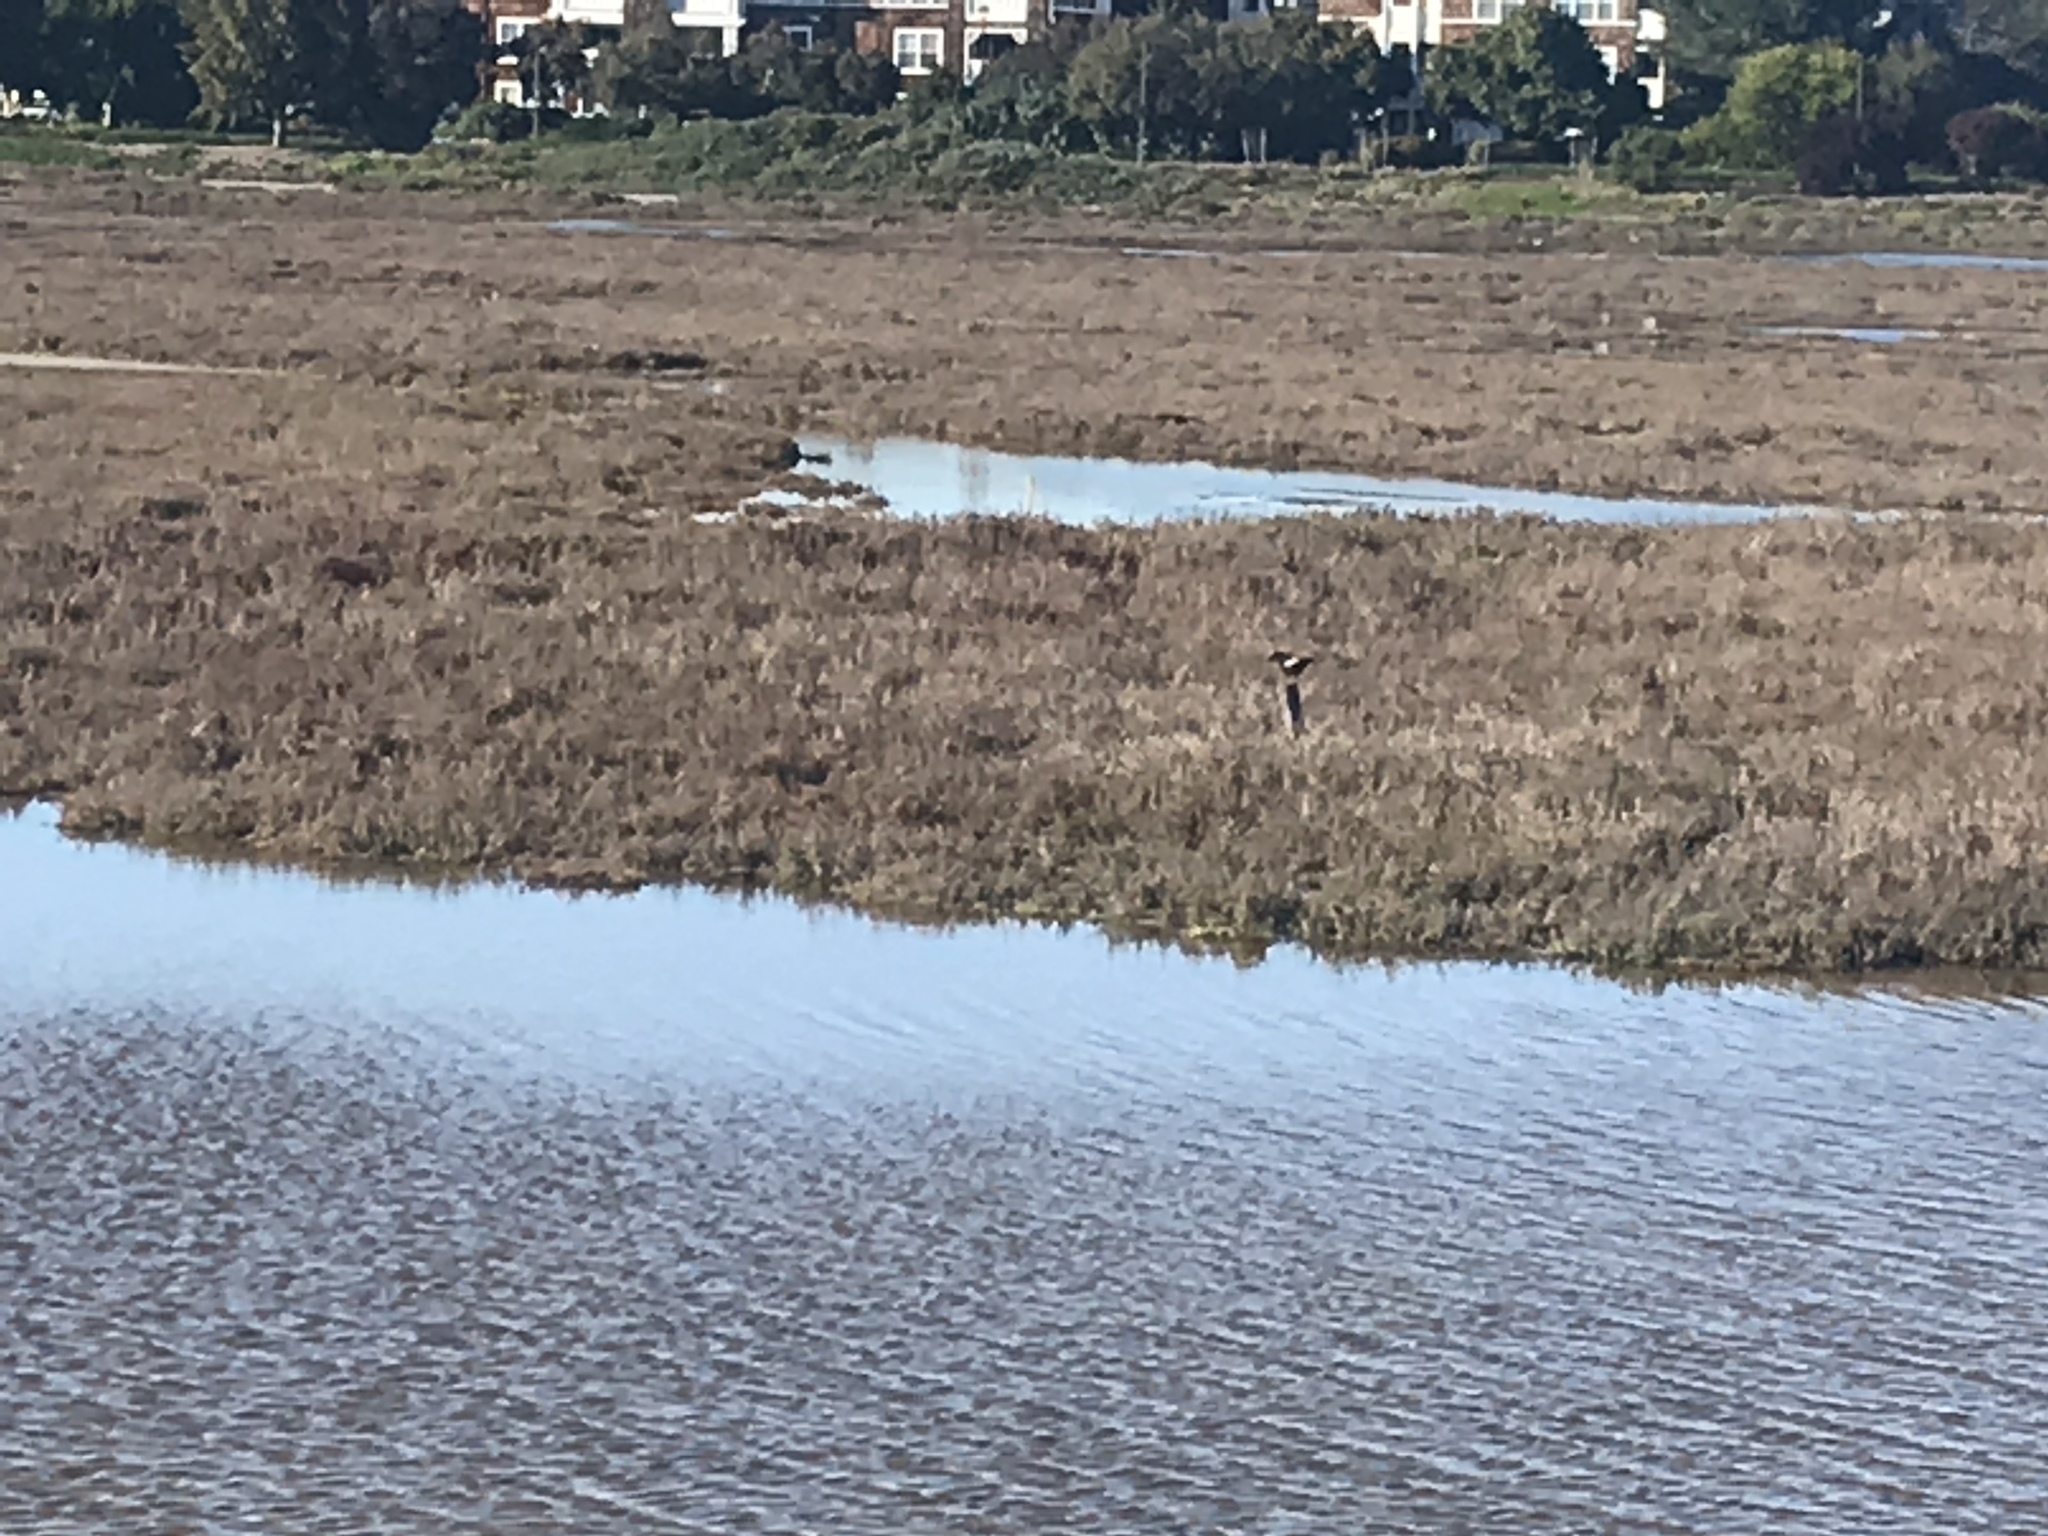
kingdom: Animalia
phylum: Chordata
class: Aves
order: Passeriformes
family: Corvidae
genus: Corvus
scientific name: Corvus brachyrhynchos
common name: American crow
